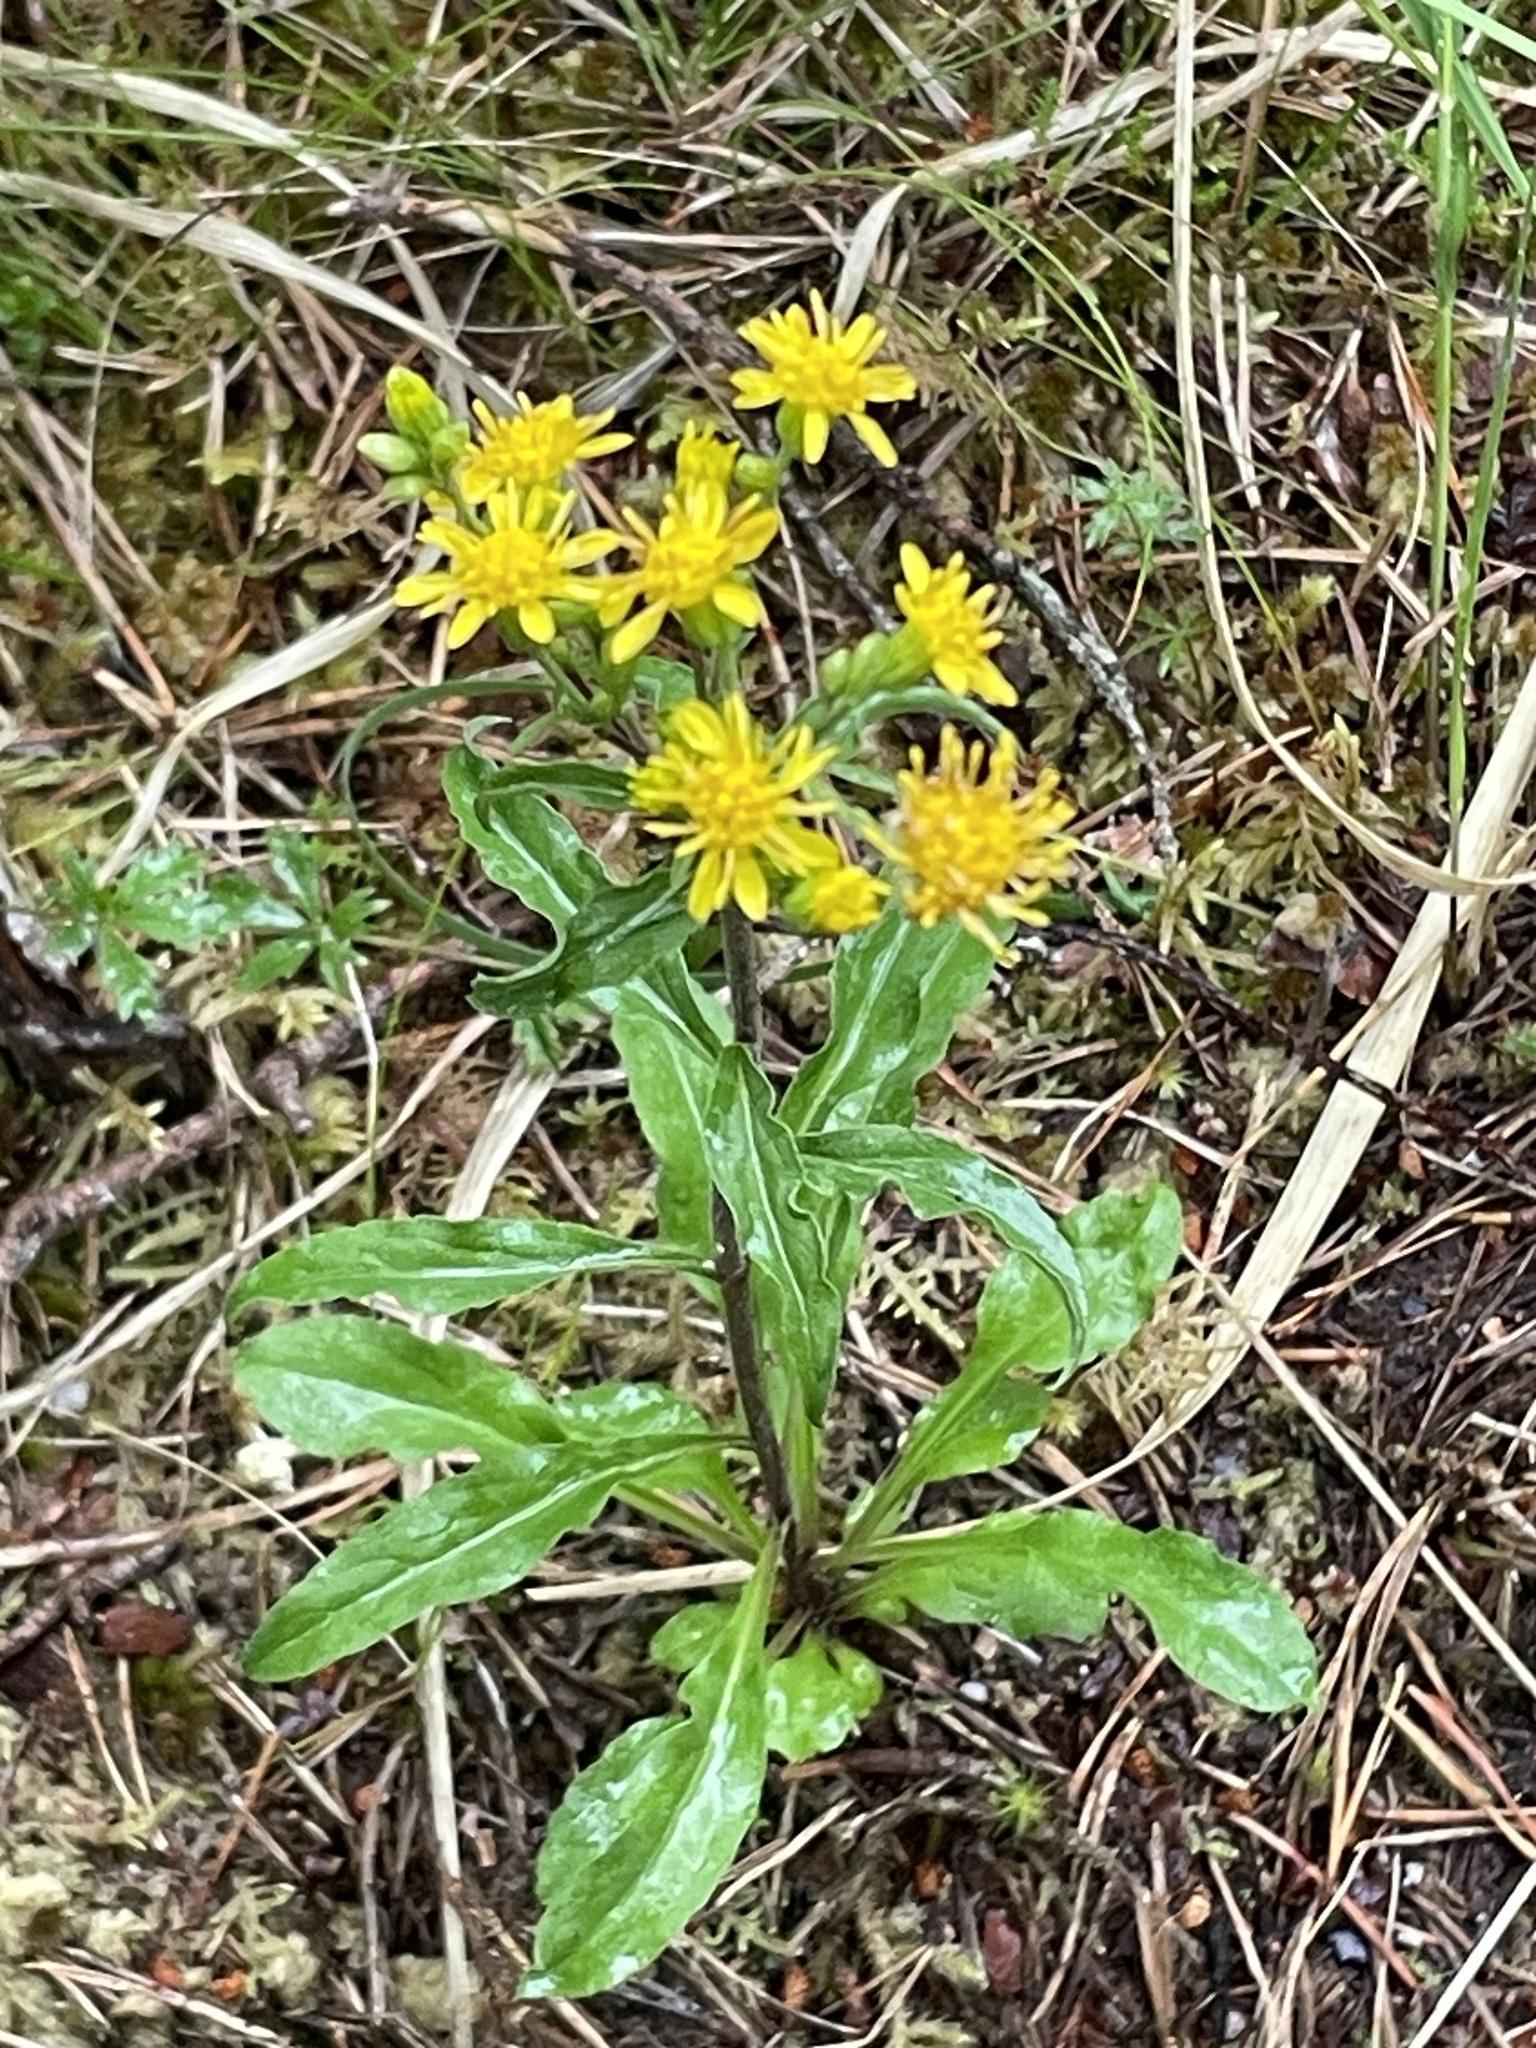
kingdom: Plantae
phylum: Tracheophyta
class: Magnoliopsida
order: Asterales
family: Asteraceae
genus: Solidago
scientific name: Solidago virgaurea
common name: Goldenrod
